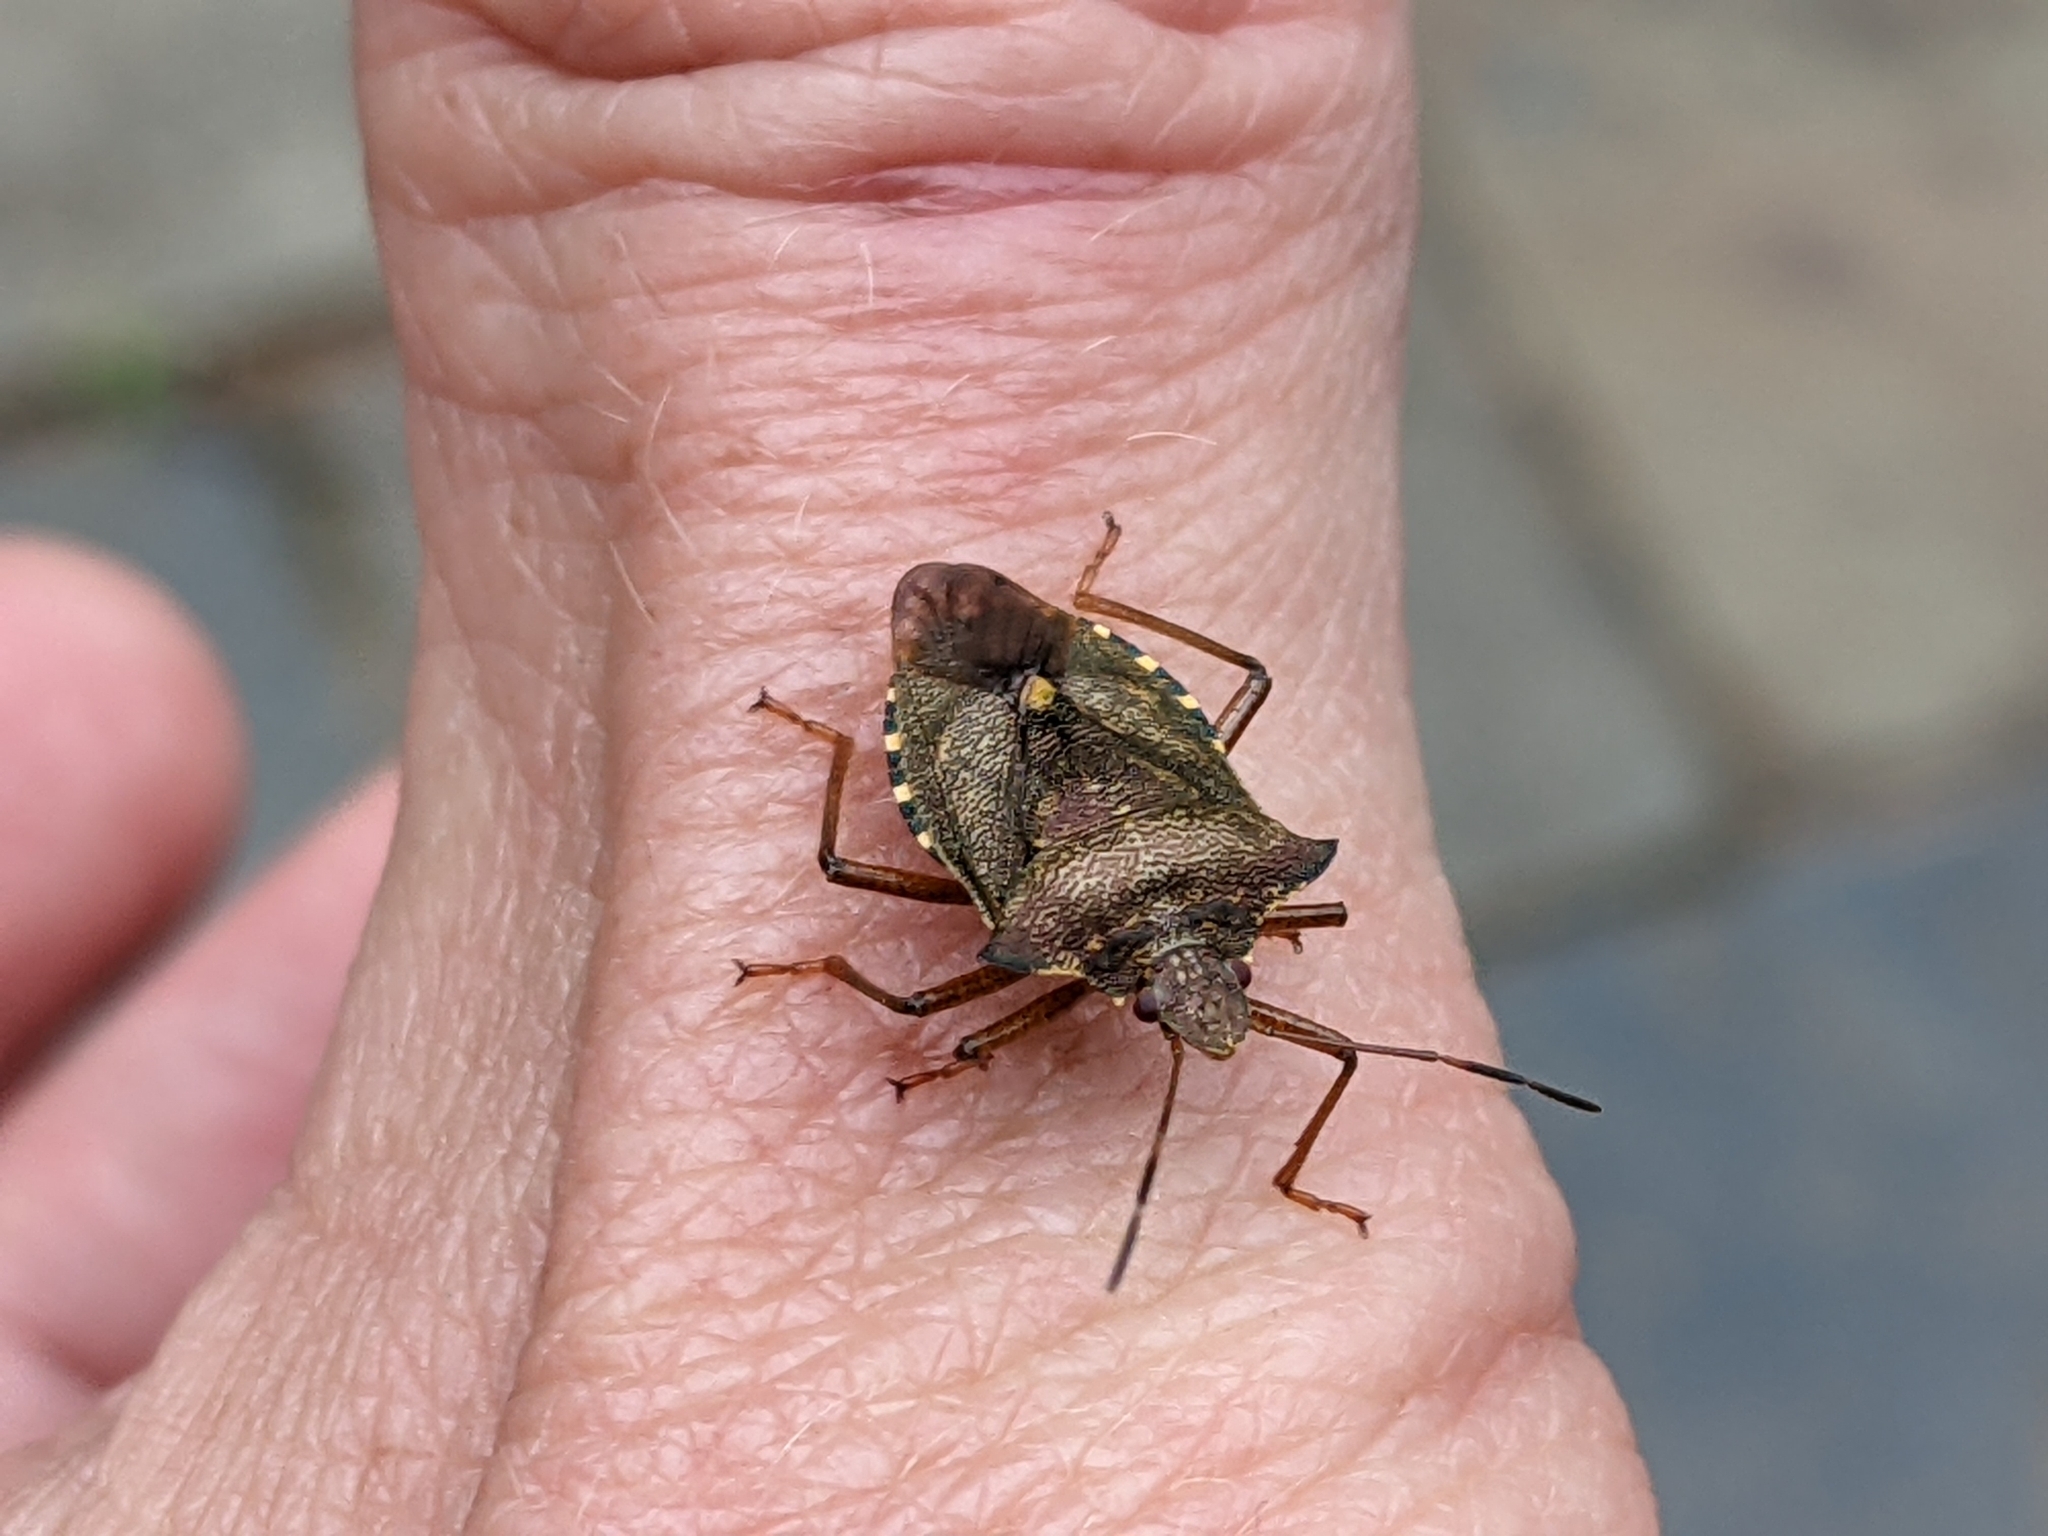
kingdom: Animalia
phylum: Arthropoda
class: Insecta
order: Hemiptera
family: Pentatomidae
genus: Pentatoma
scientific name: Pentatoma rufipes
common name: Forest bug
